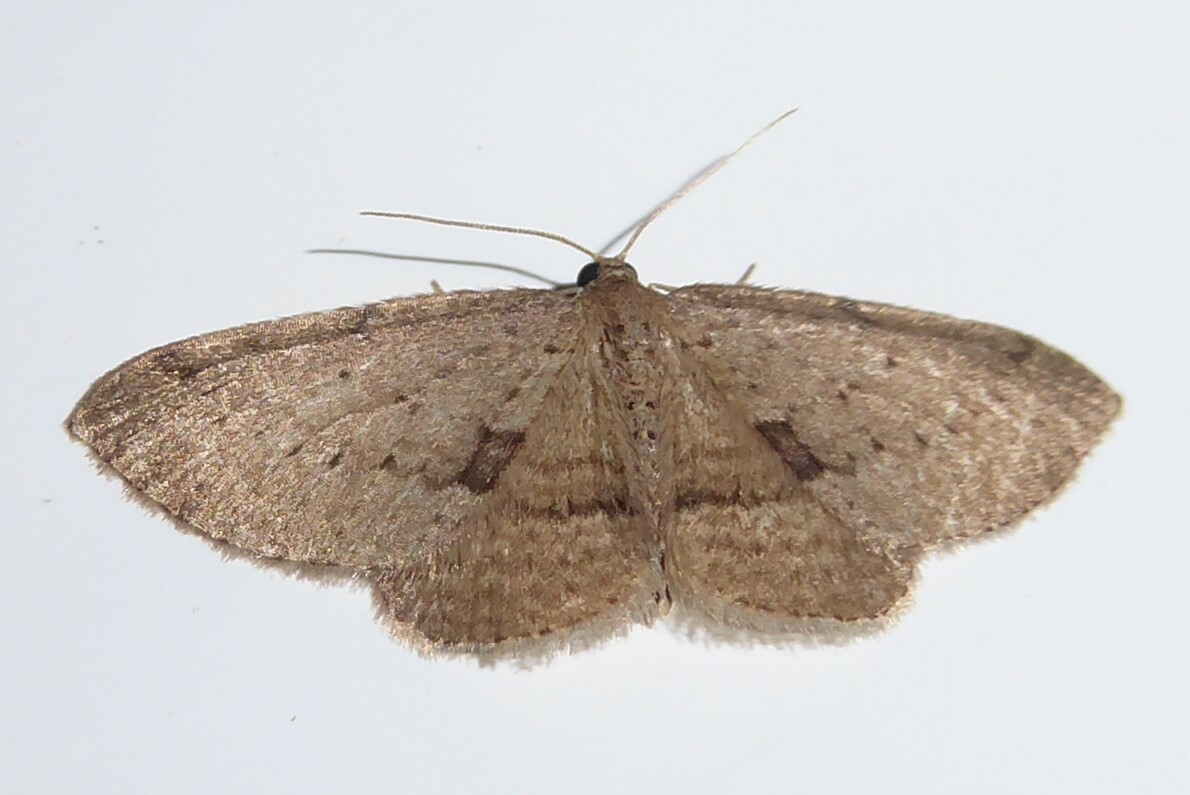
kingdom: Animalia
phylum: Arthropoda
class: Insecta
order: Lepidoptera
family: Geometridae
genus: Poecilasthena
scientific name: Poecilasthena schistaria
